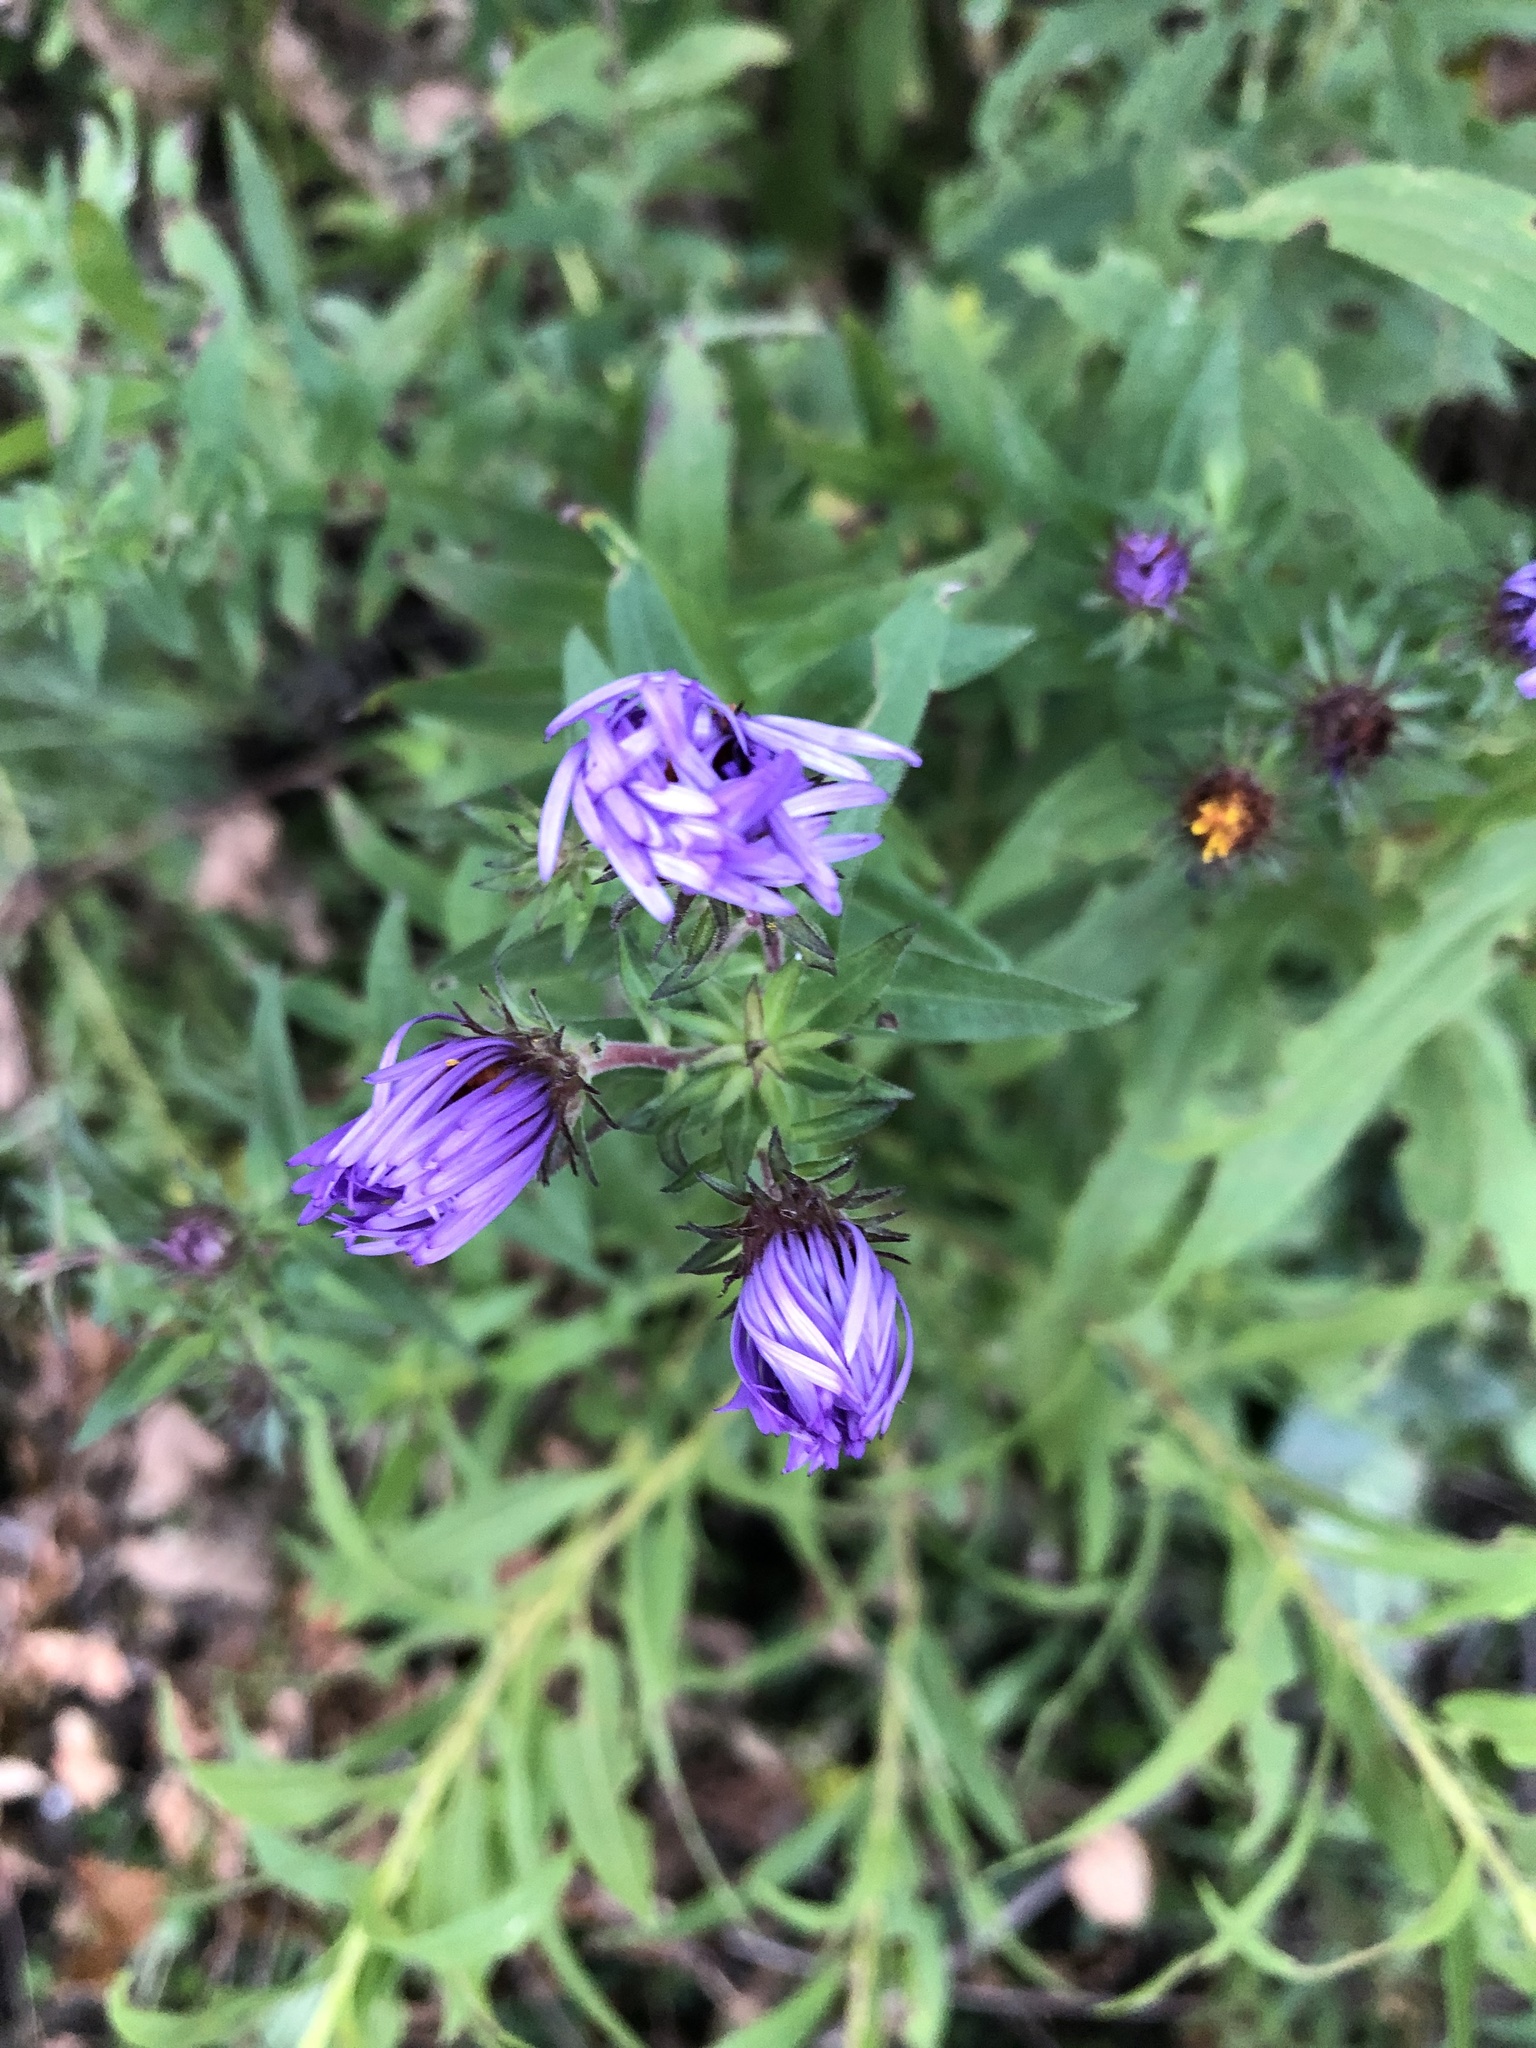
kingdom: Plantae
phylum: Tracheophyta
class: Magnoliopsida
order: Asterales
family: Asteraceae
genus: Symphyotrichum
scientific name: Symphyotrichum novae-angliae
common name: Michaelmas daisy
